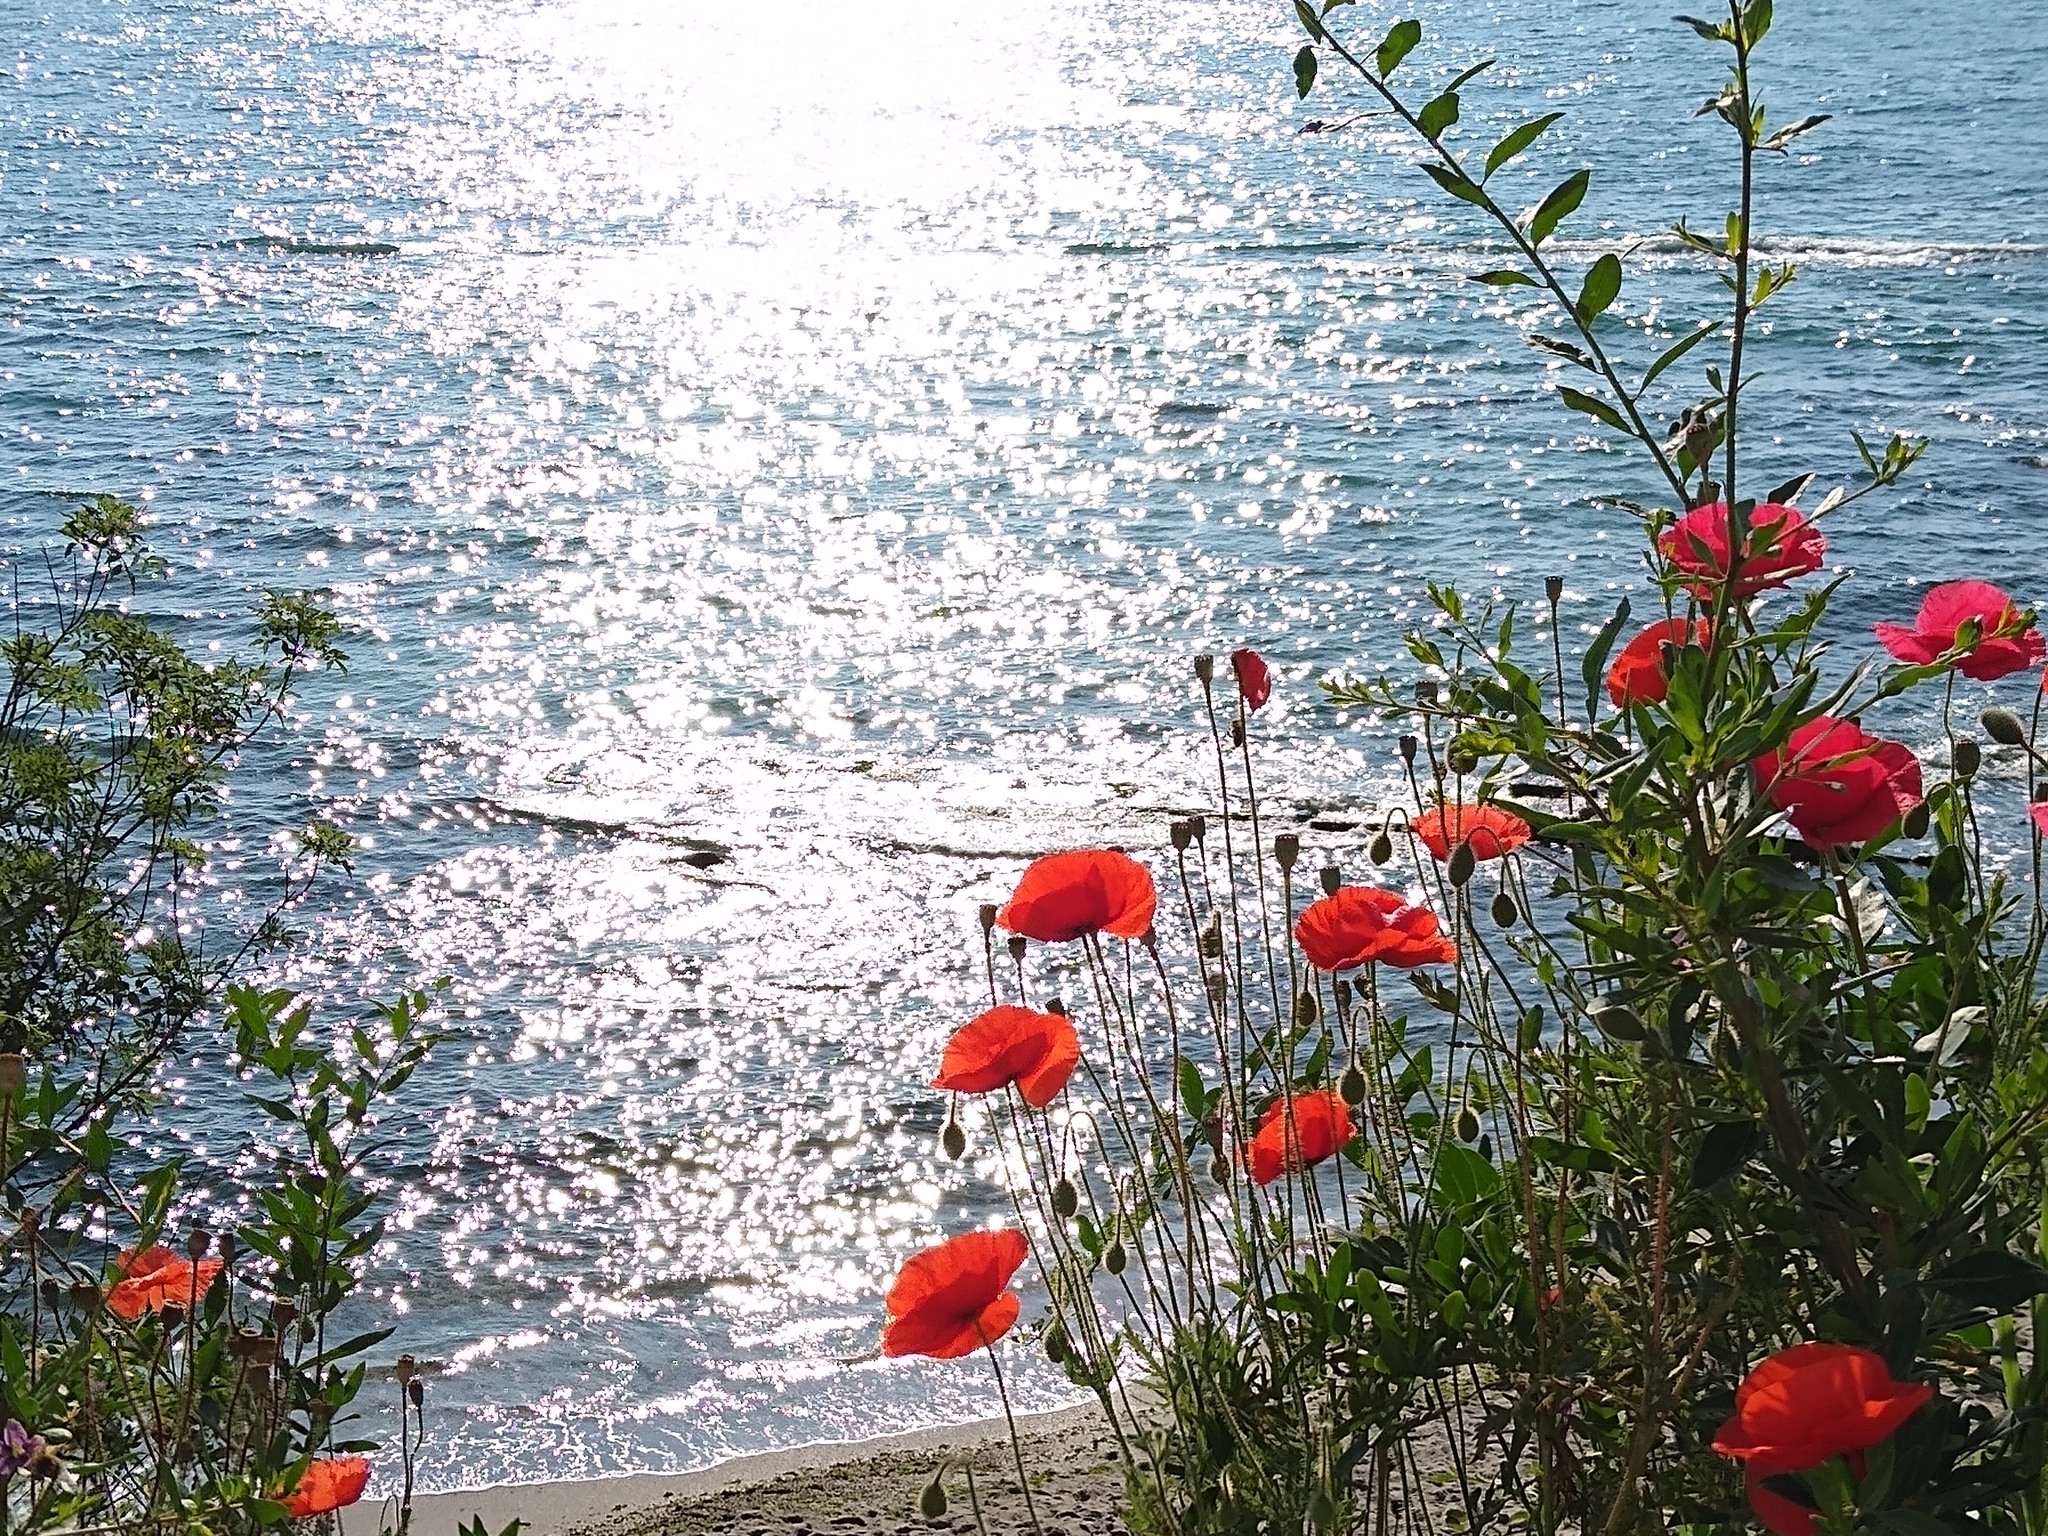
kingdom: Plantae
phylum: Tracheophyta
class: Magnoliopsida
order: Ranunculales
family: Papaveraceae
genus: Papaver
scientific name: Papaver rhoeas
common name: Corn poppy
